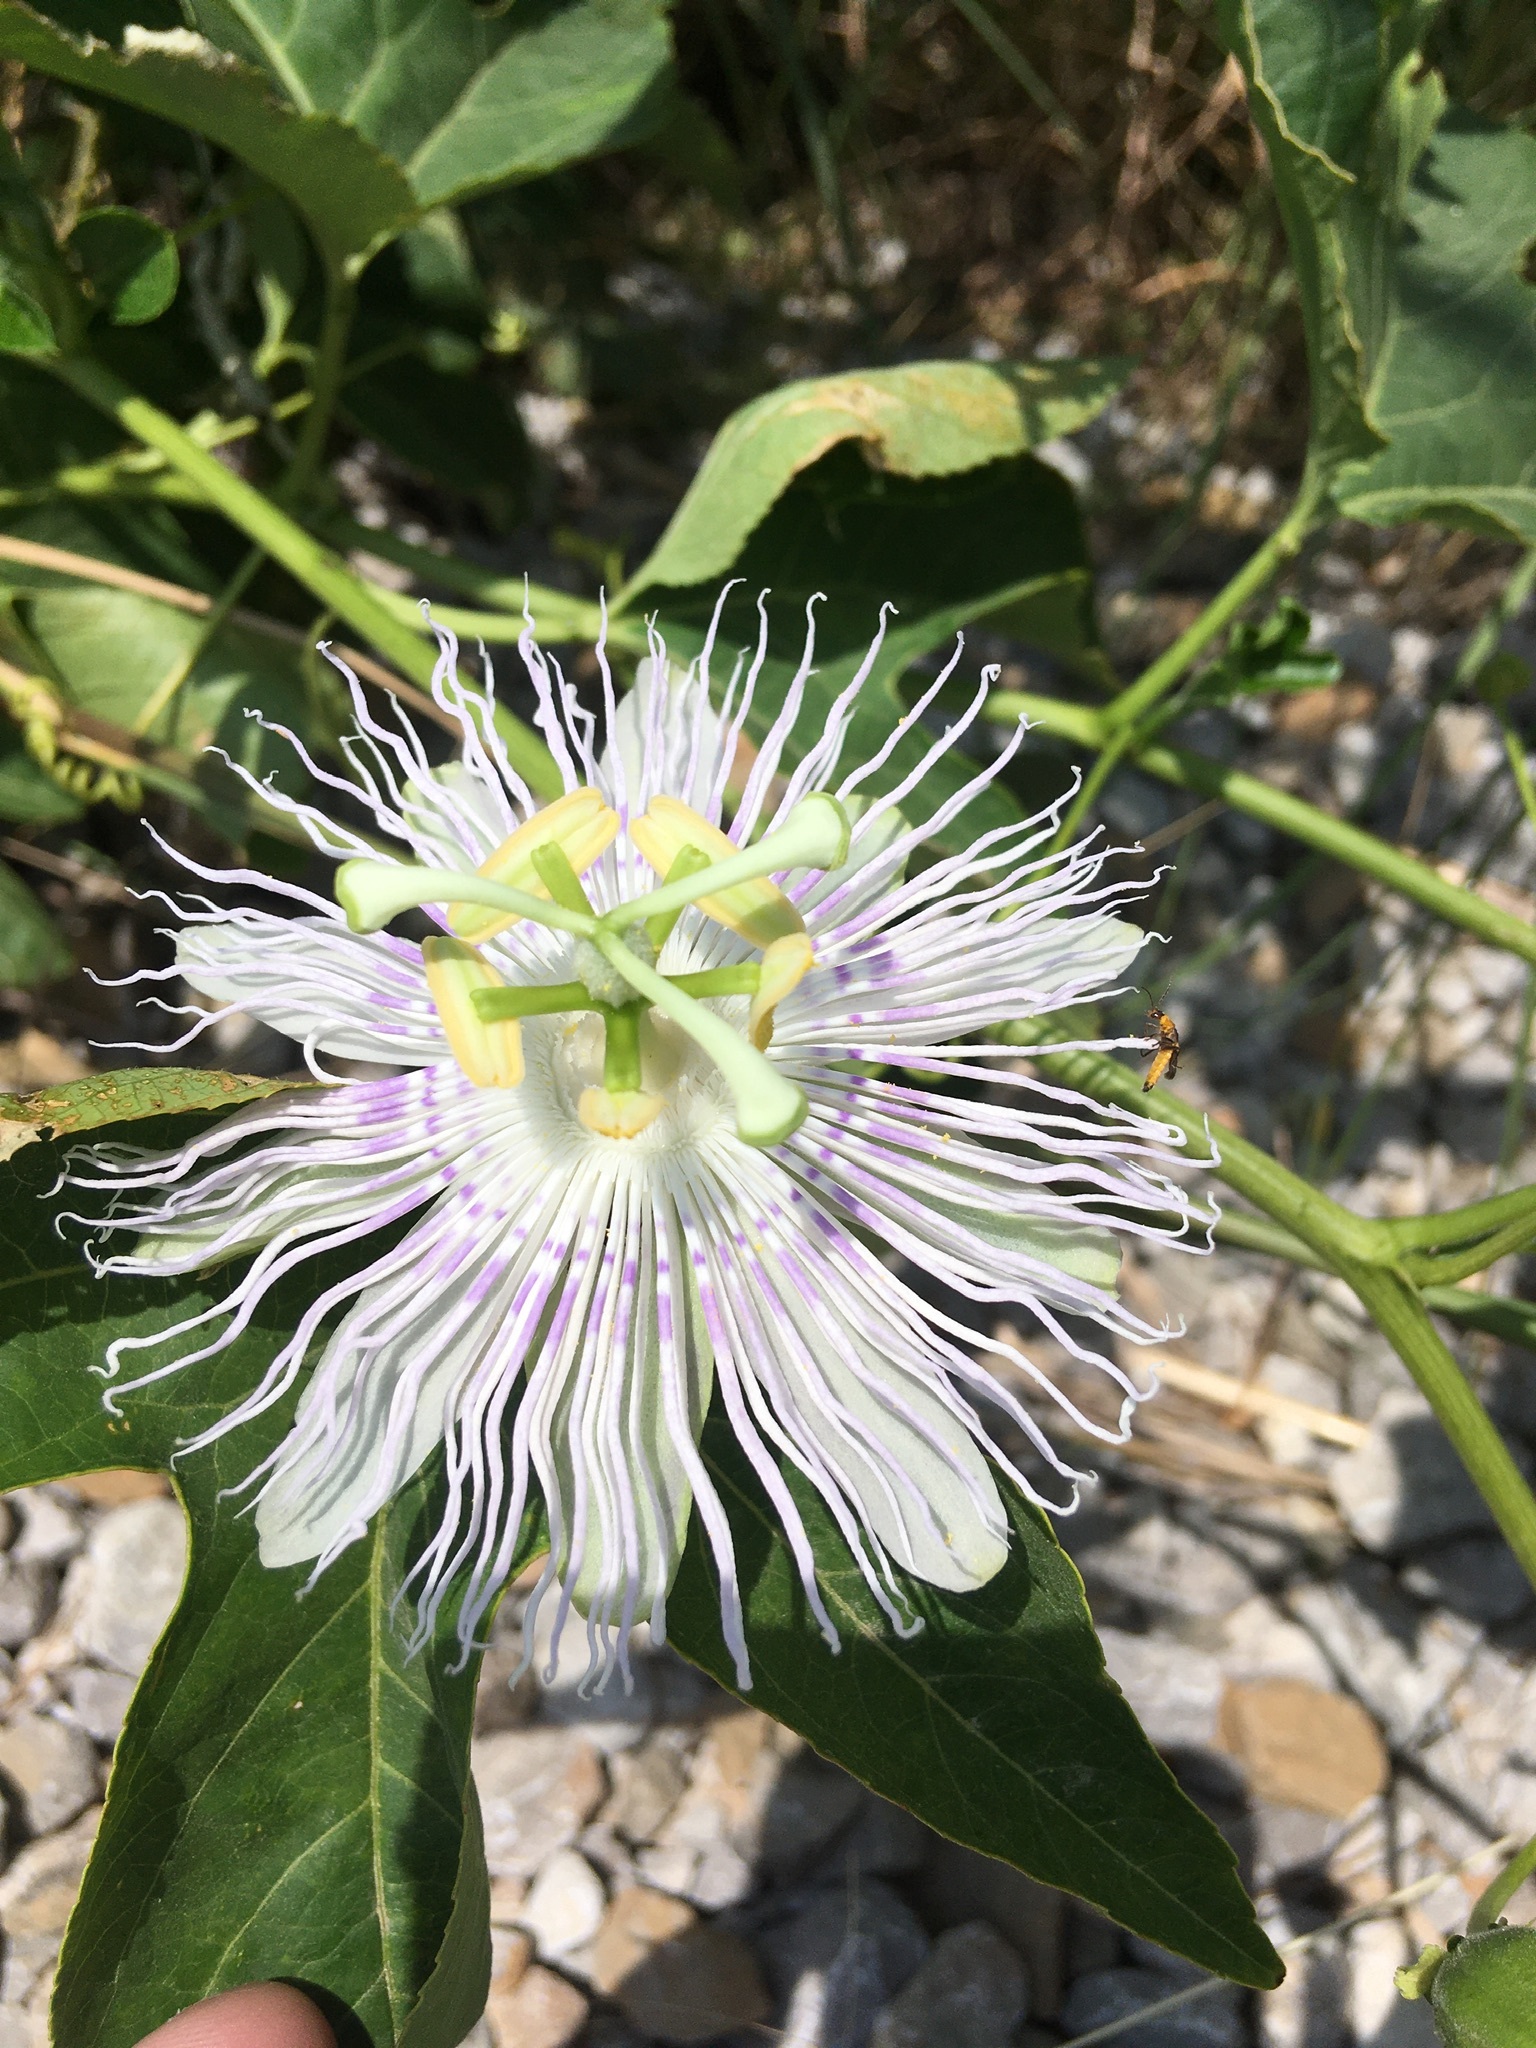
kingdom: Plantae
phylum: Tracheophyta
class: Magnoliopsida
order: Malpighiales
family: Passifloraceae
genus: Passiflora
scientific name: Passiflora incarnata
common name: Apricot-vine
